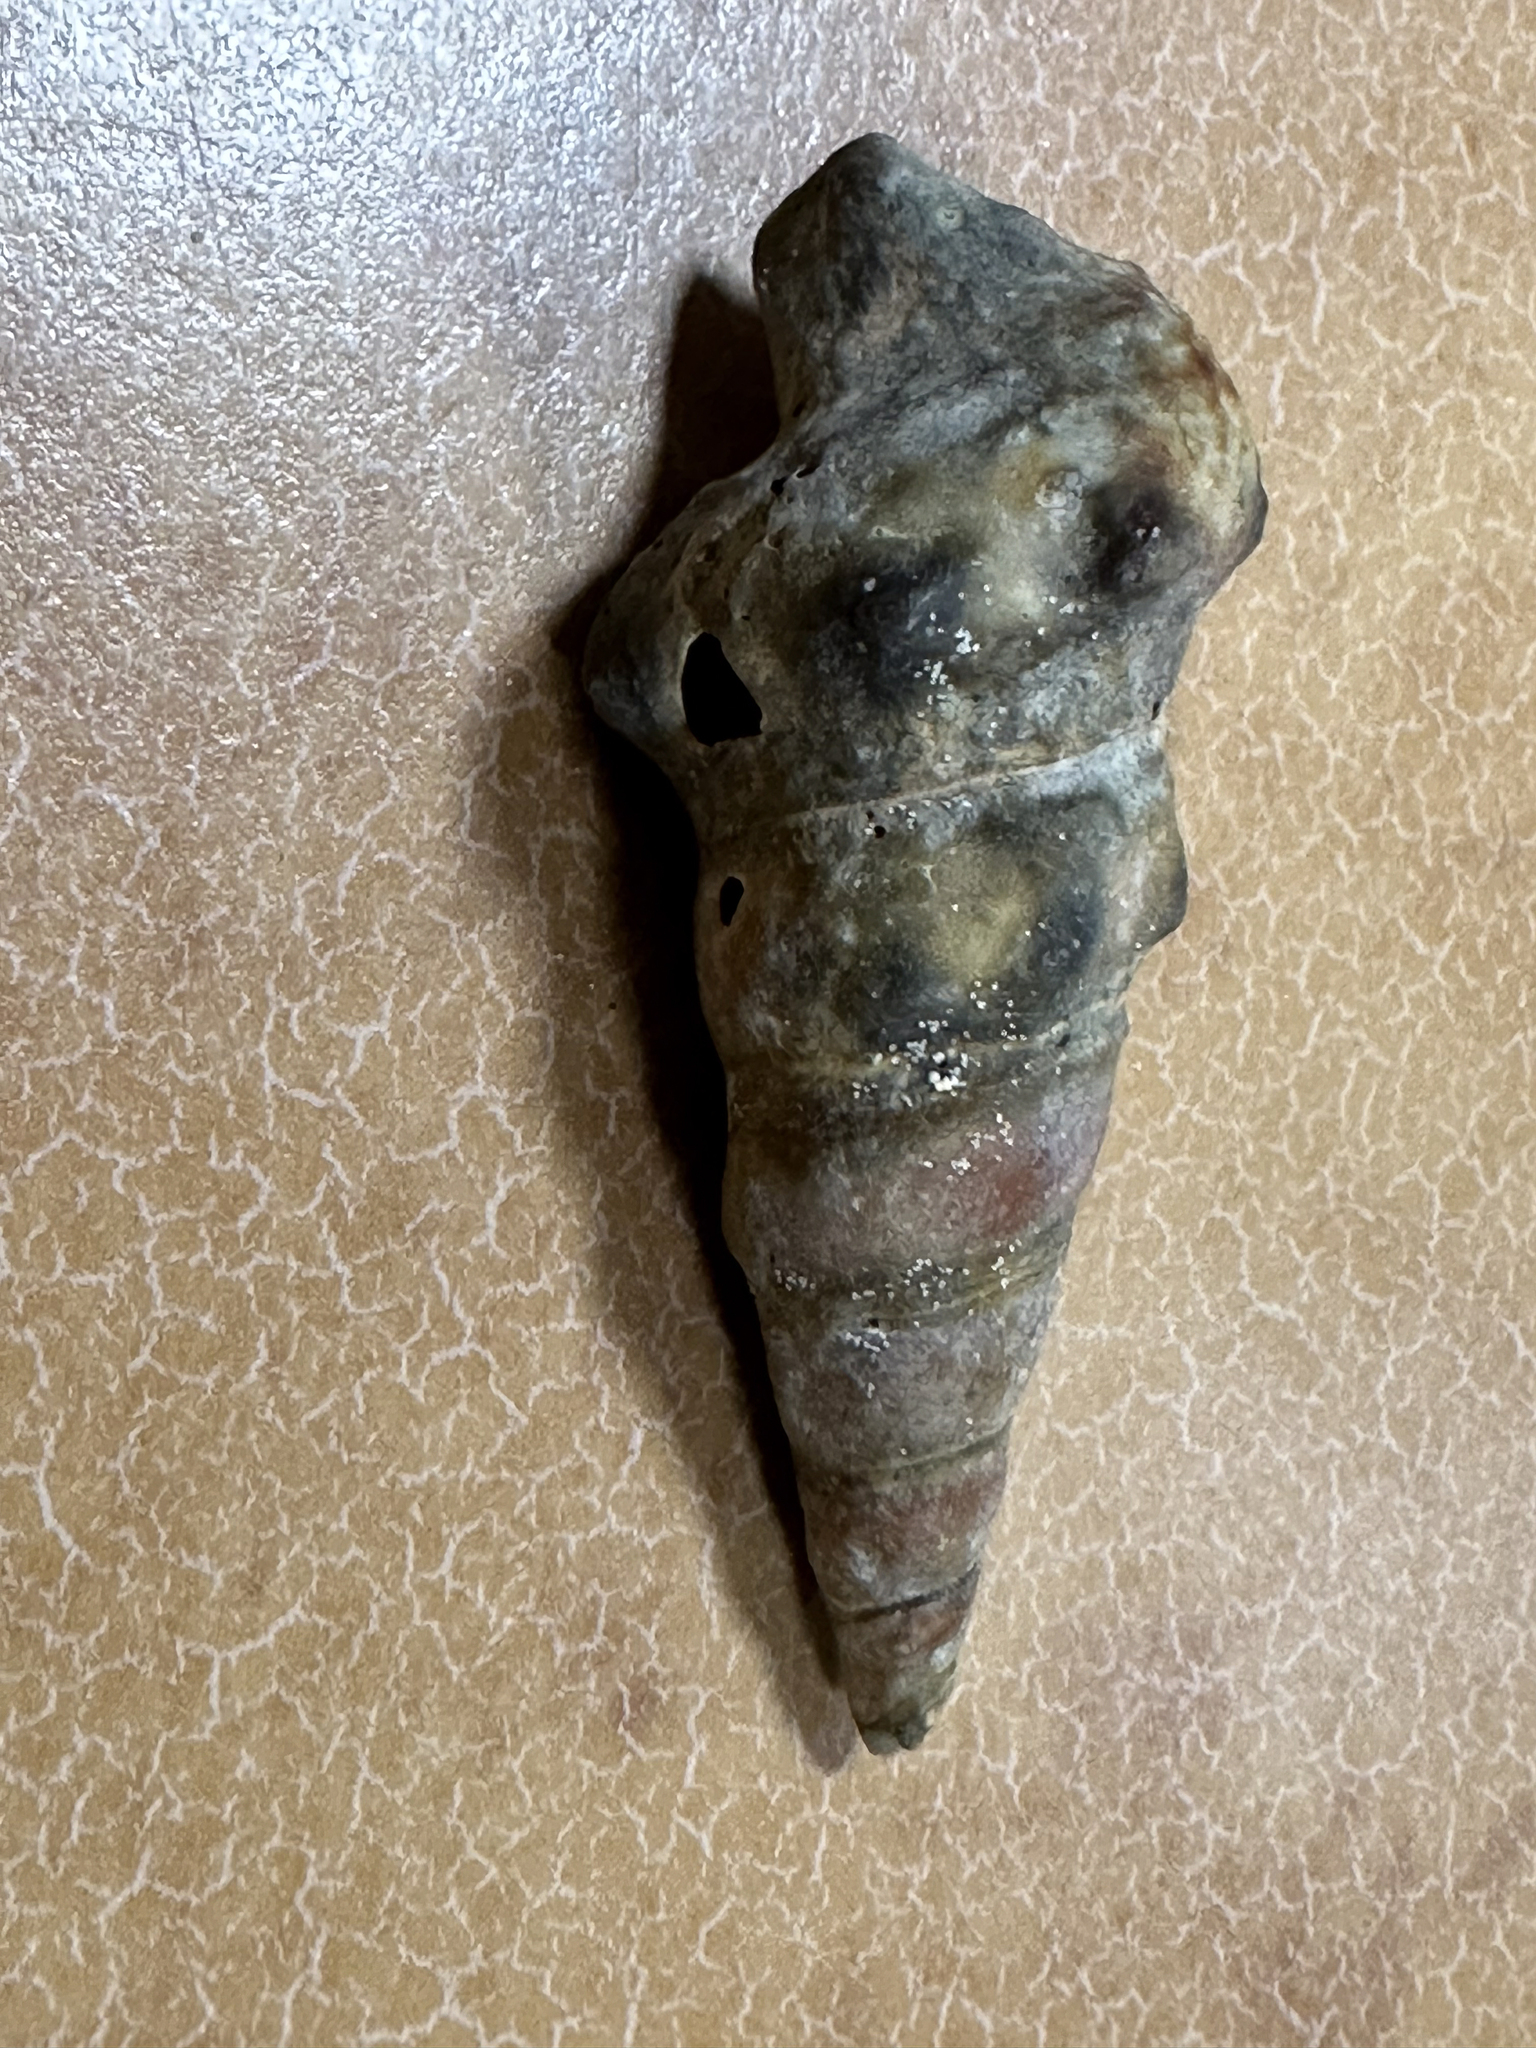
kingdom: Animalia
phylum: Mollusca
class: Gastropoda
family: Batillariidae
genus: Pyrazus
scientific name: Pyrazus ebeninus
